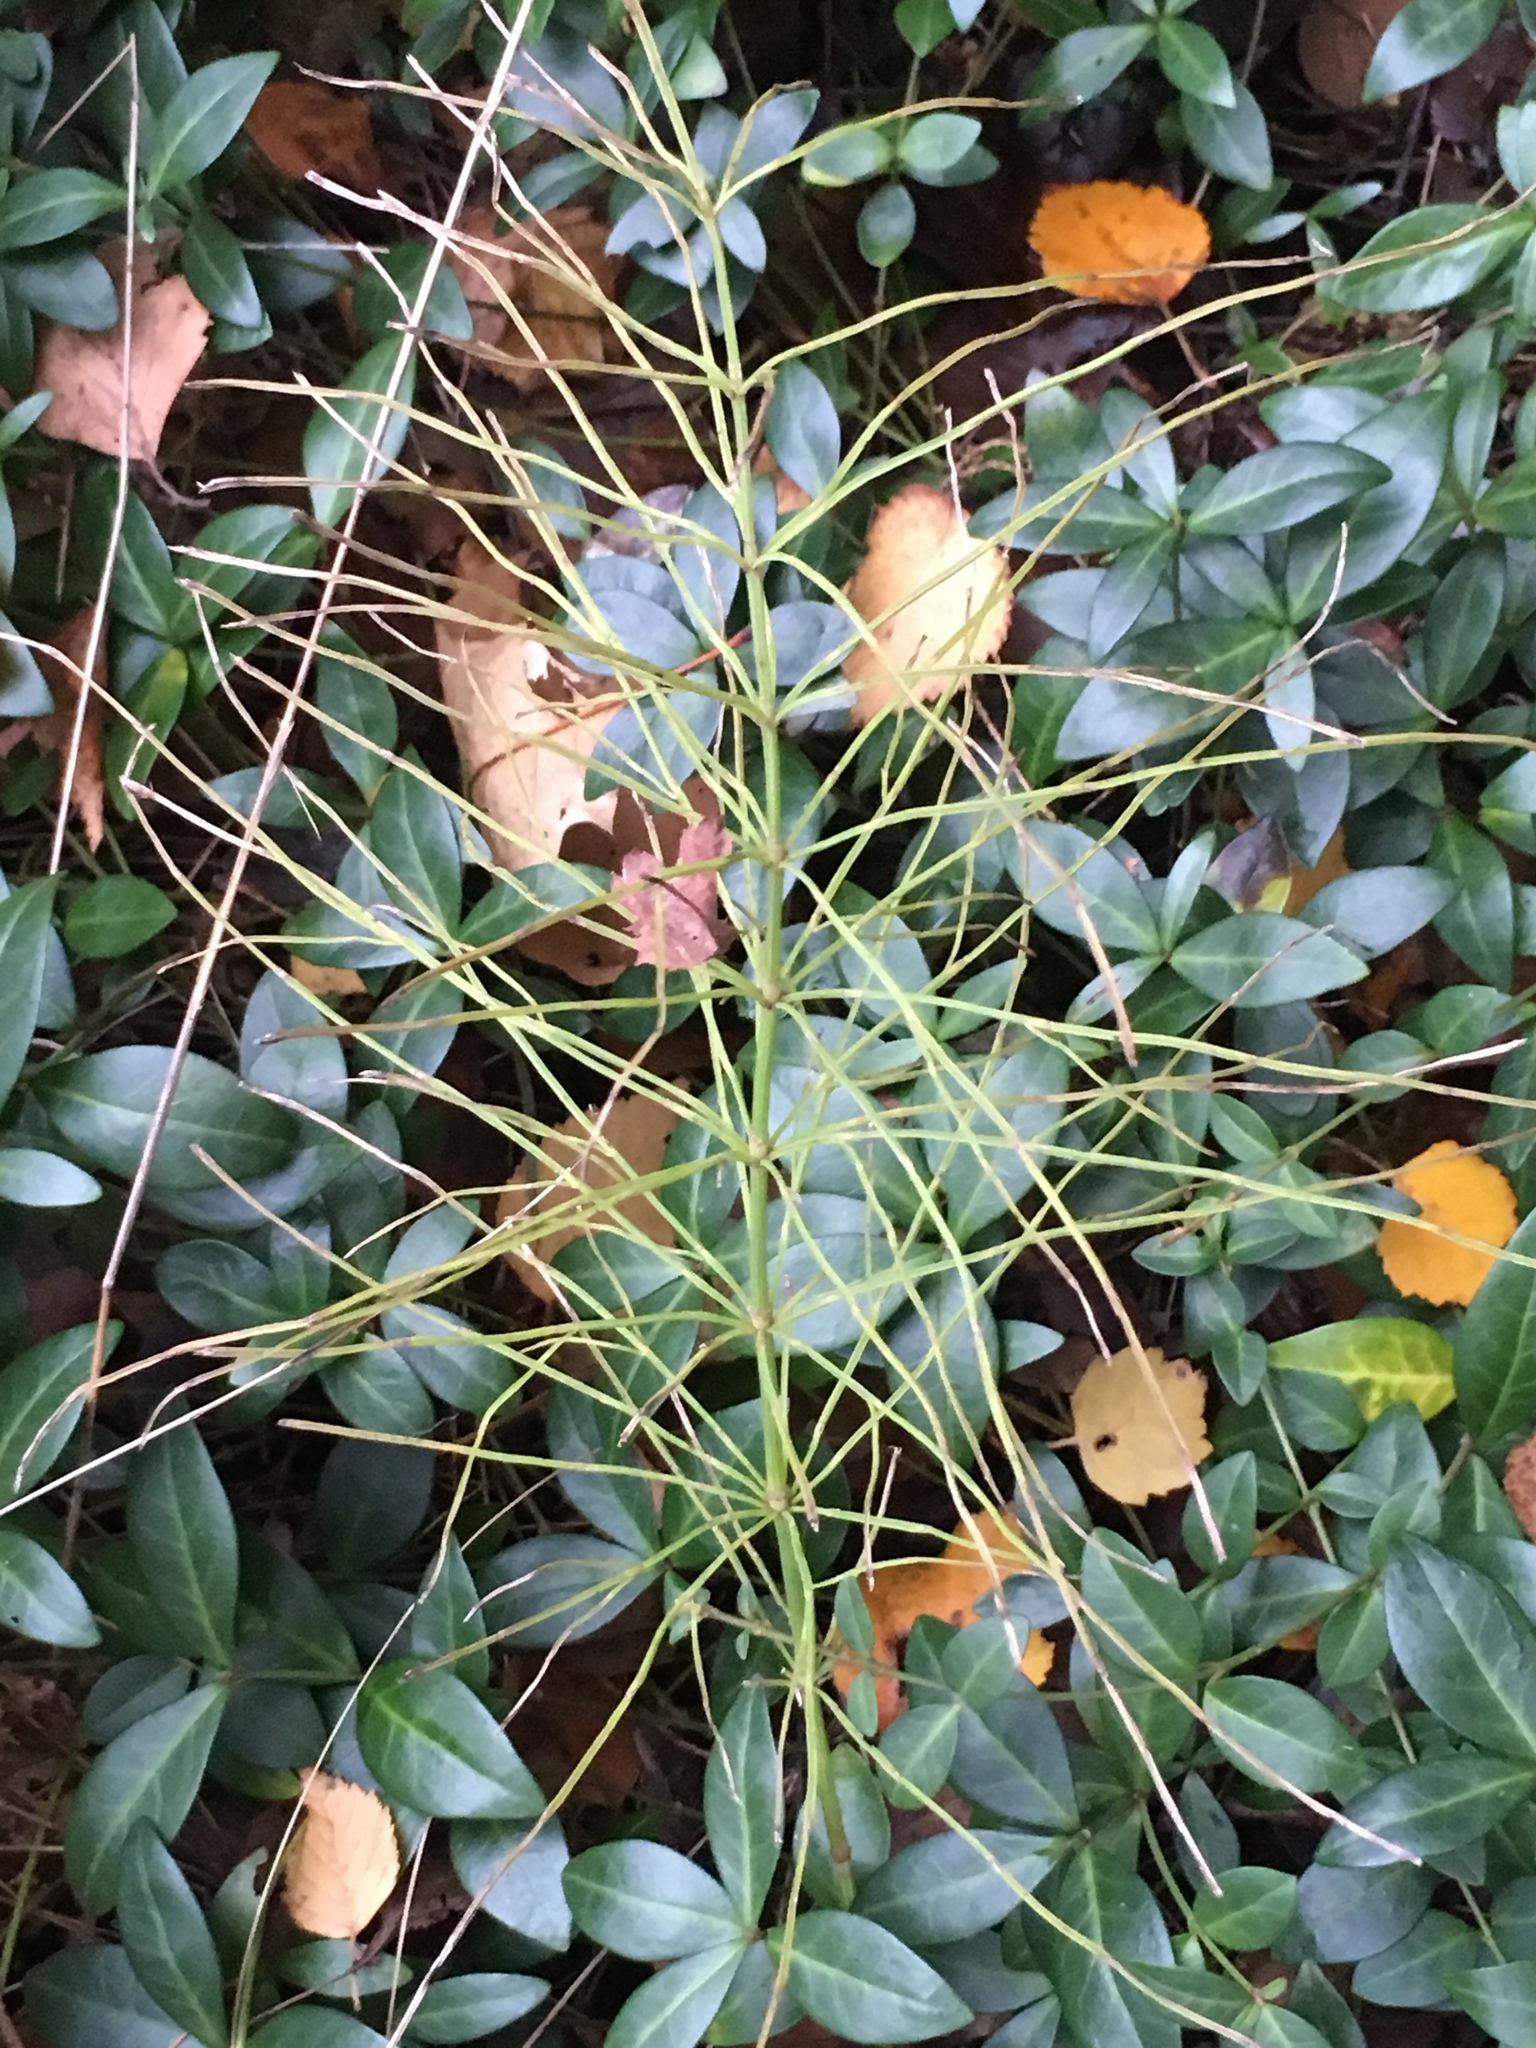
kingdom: Plantae
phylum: Tracheophyta
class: Polypodiopsida
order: Equisetales
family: Equisetaceae
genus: Equisetum
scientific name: Equisetum arvense
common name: Field horsetail
